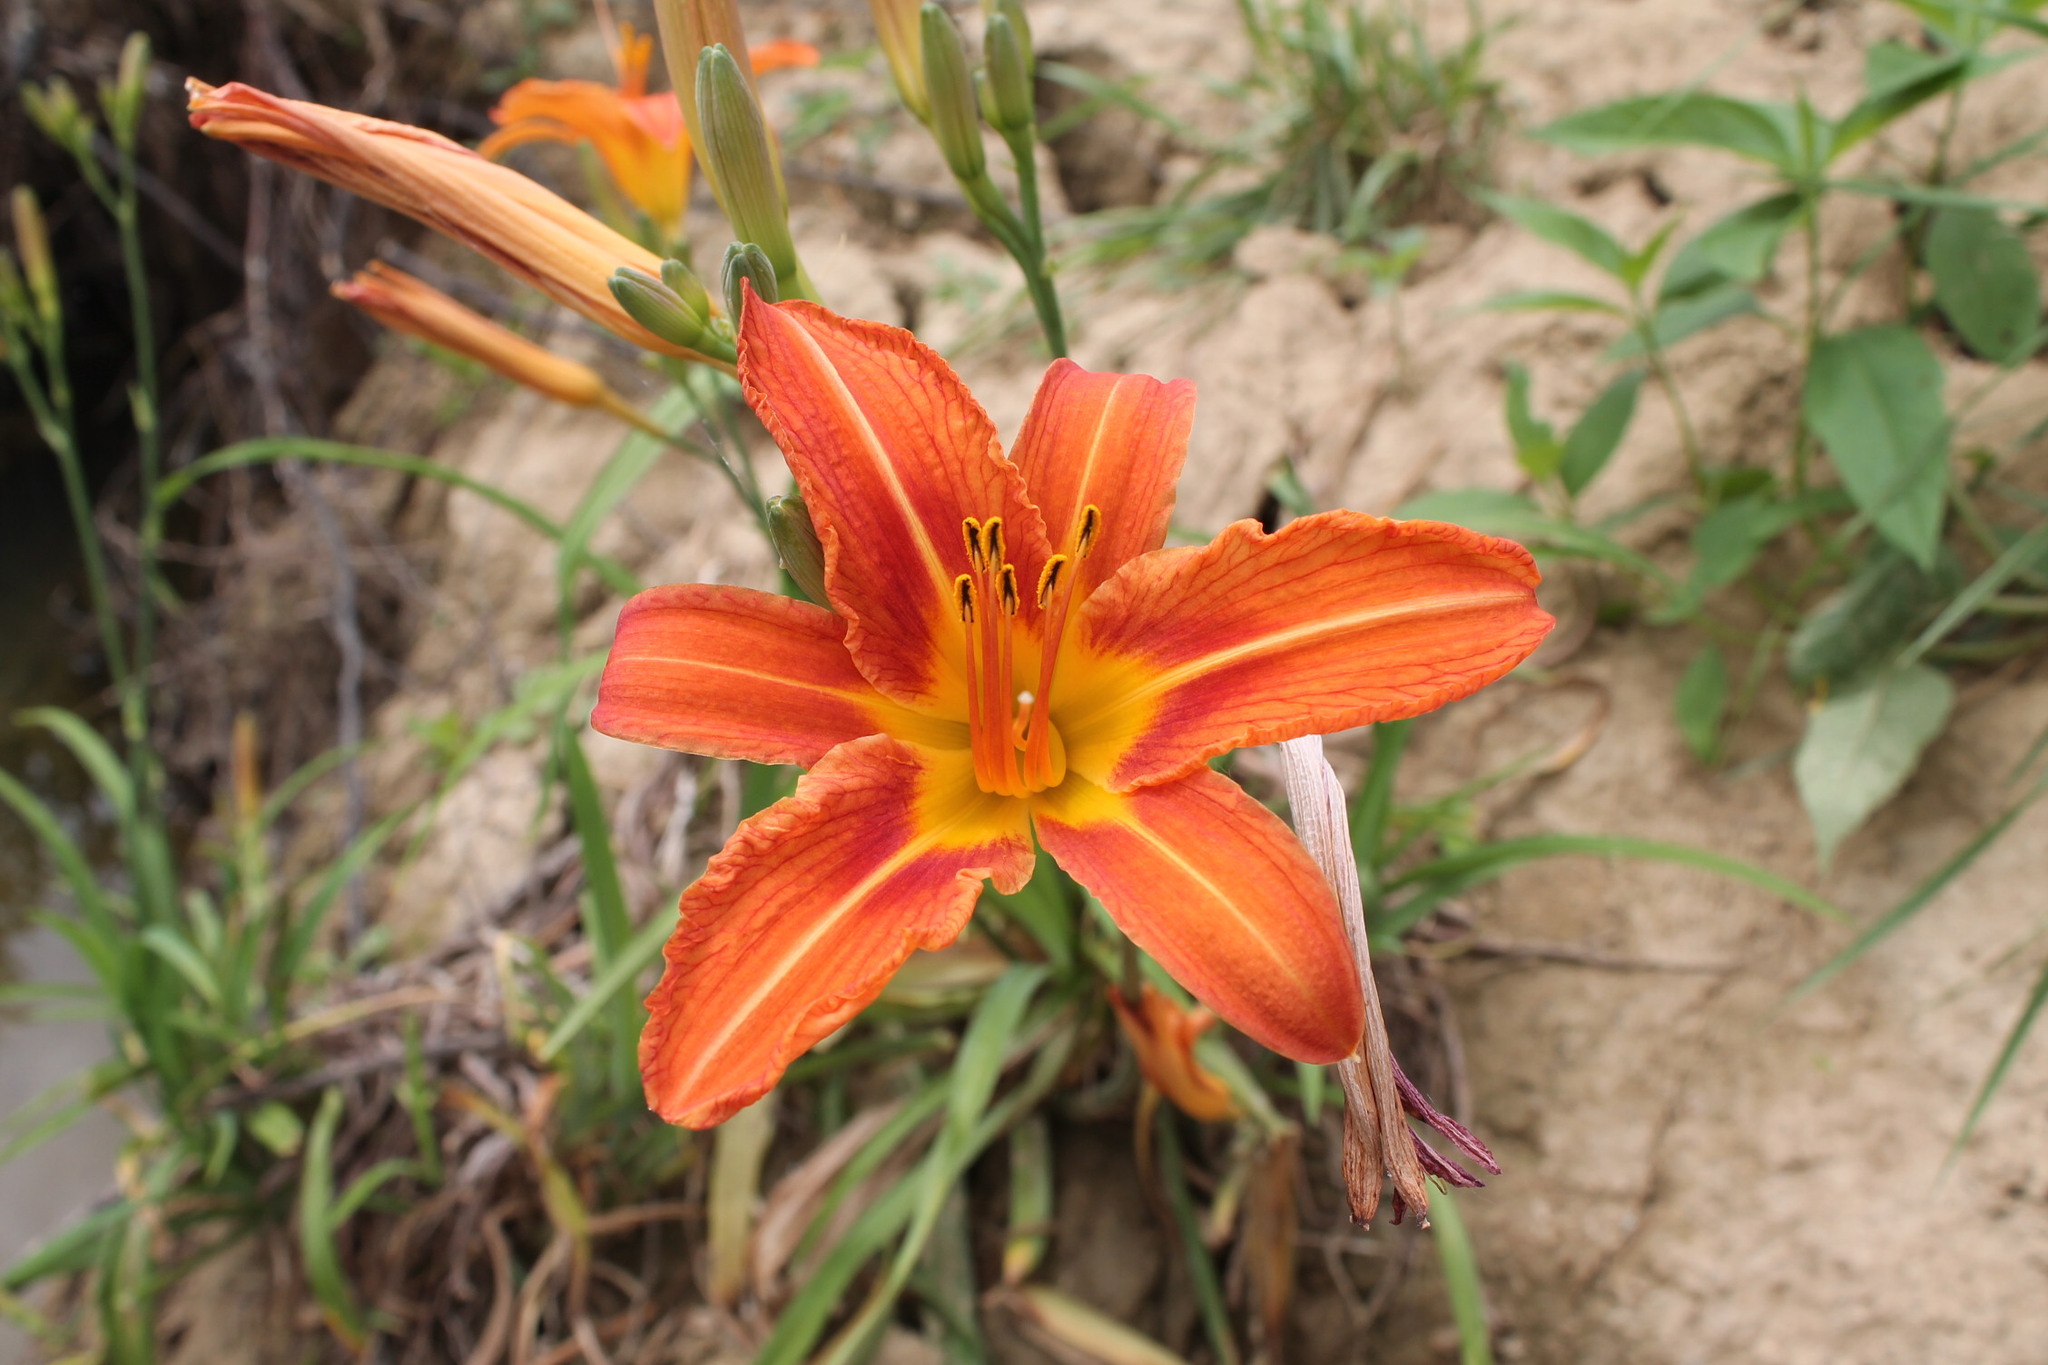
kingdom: Plantae
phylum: Tracheophyta
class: Liliopsida
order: Asparagales
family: Asphodelaceae
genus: Hemerocallis
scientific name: Hemerocallis fulva
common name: Orange day-lily
